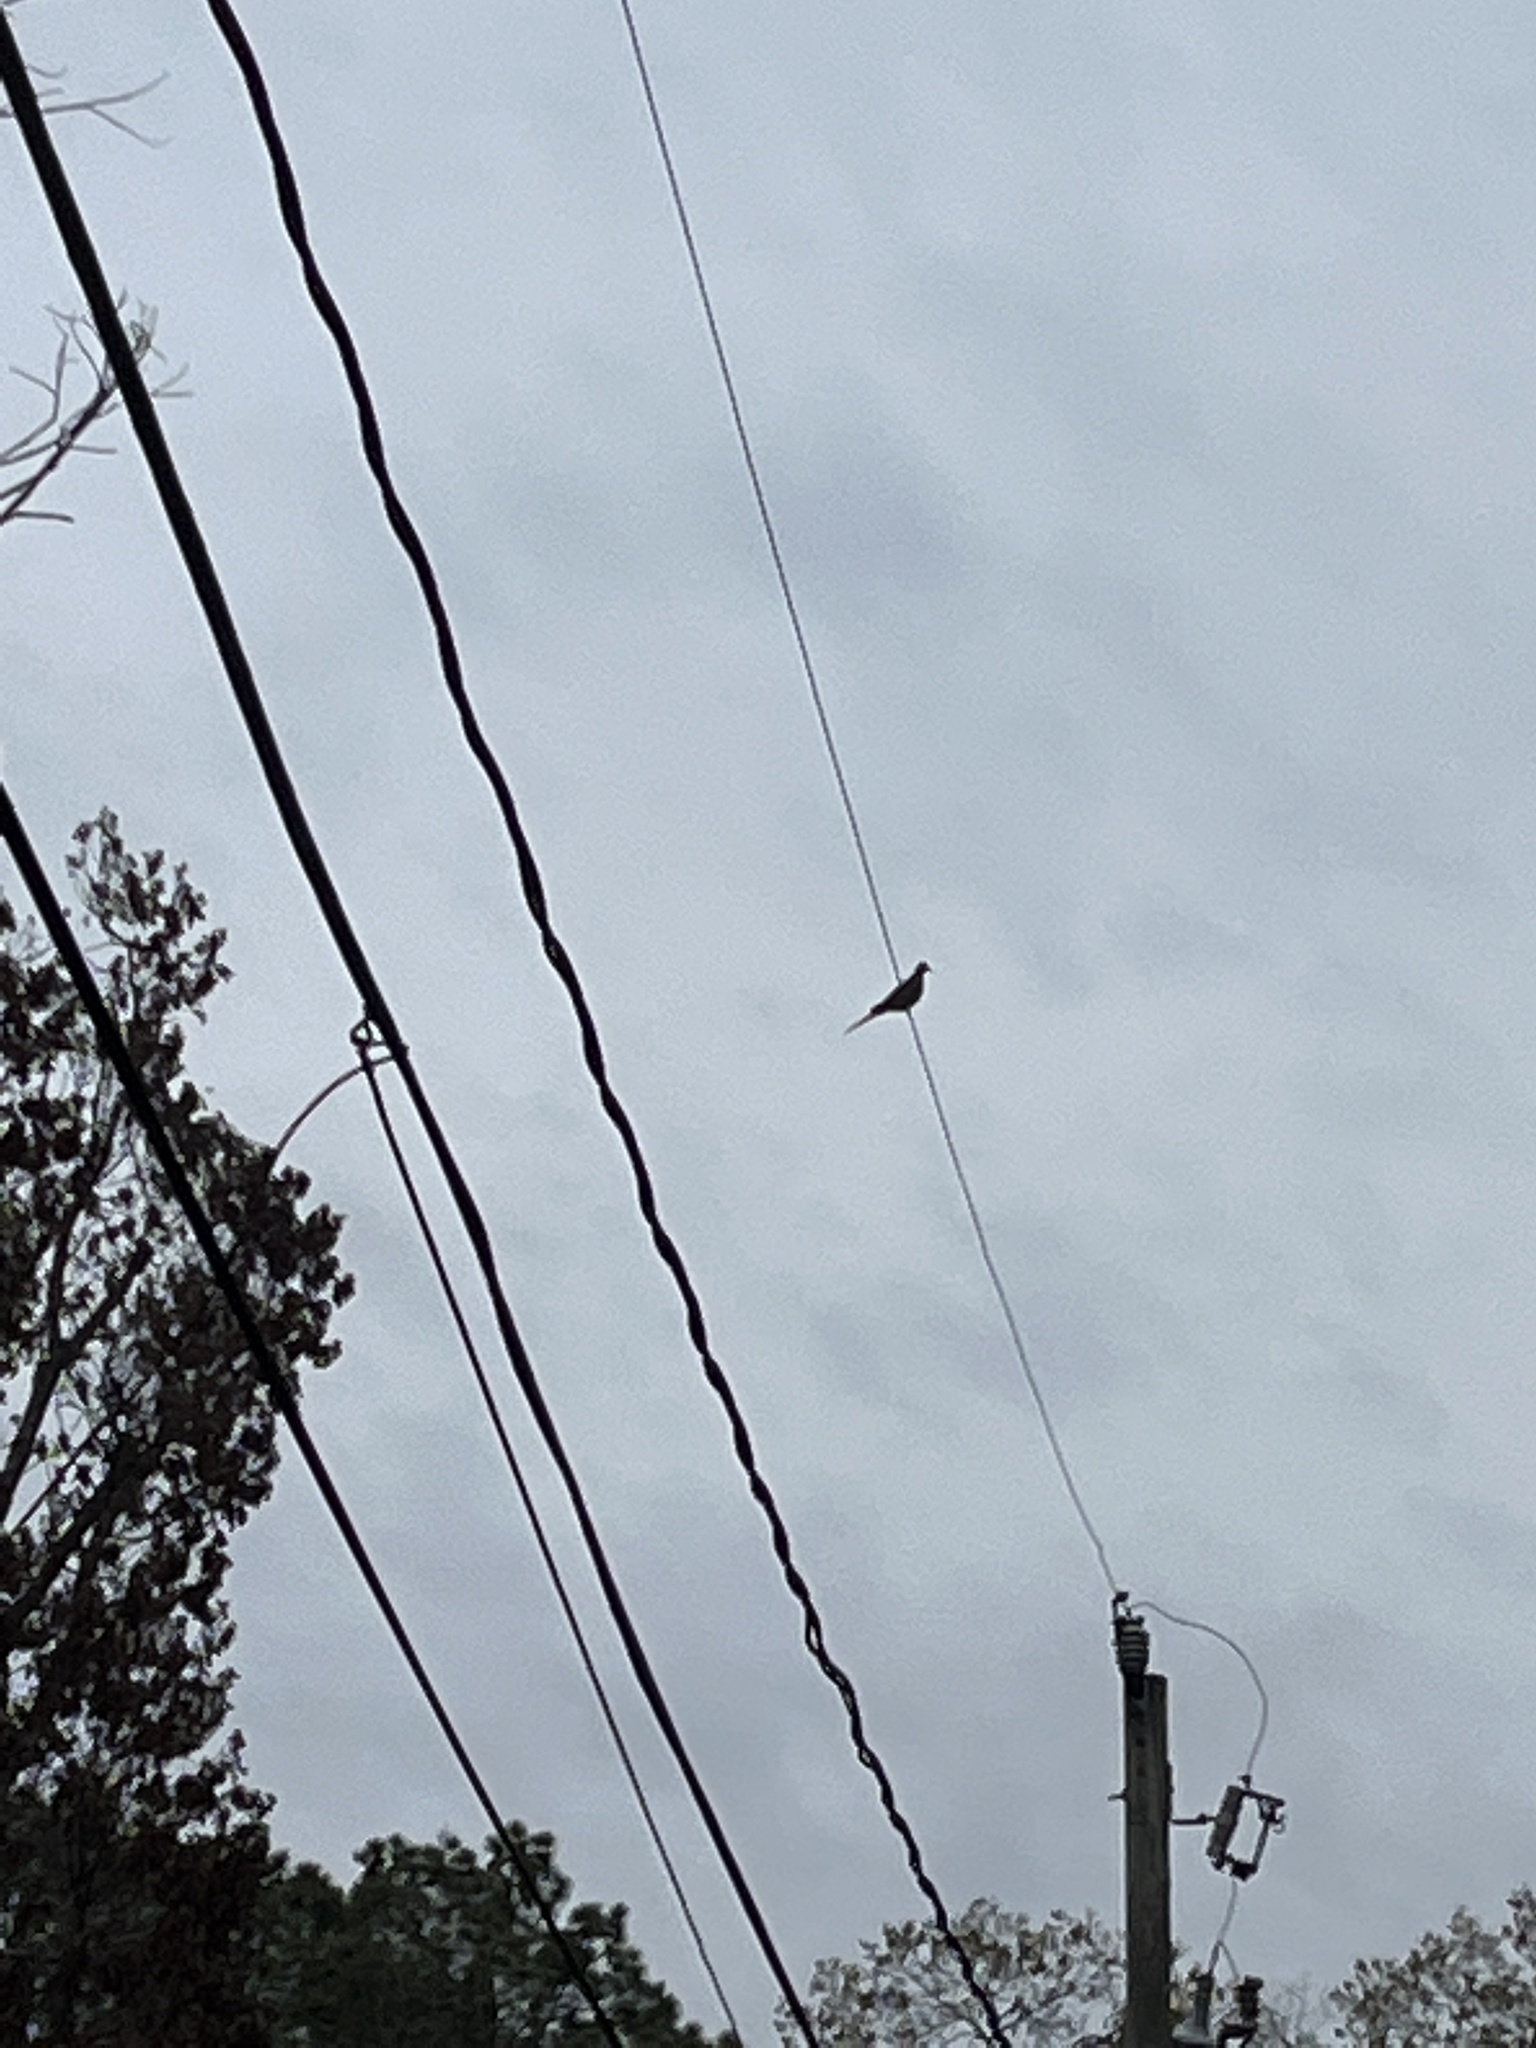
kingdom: Animalia
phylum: Chordata
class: Aves
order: Columbiformes
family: Columbidae
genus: Zenaida
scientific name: Zenaida macroura
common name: Mourning dove
